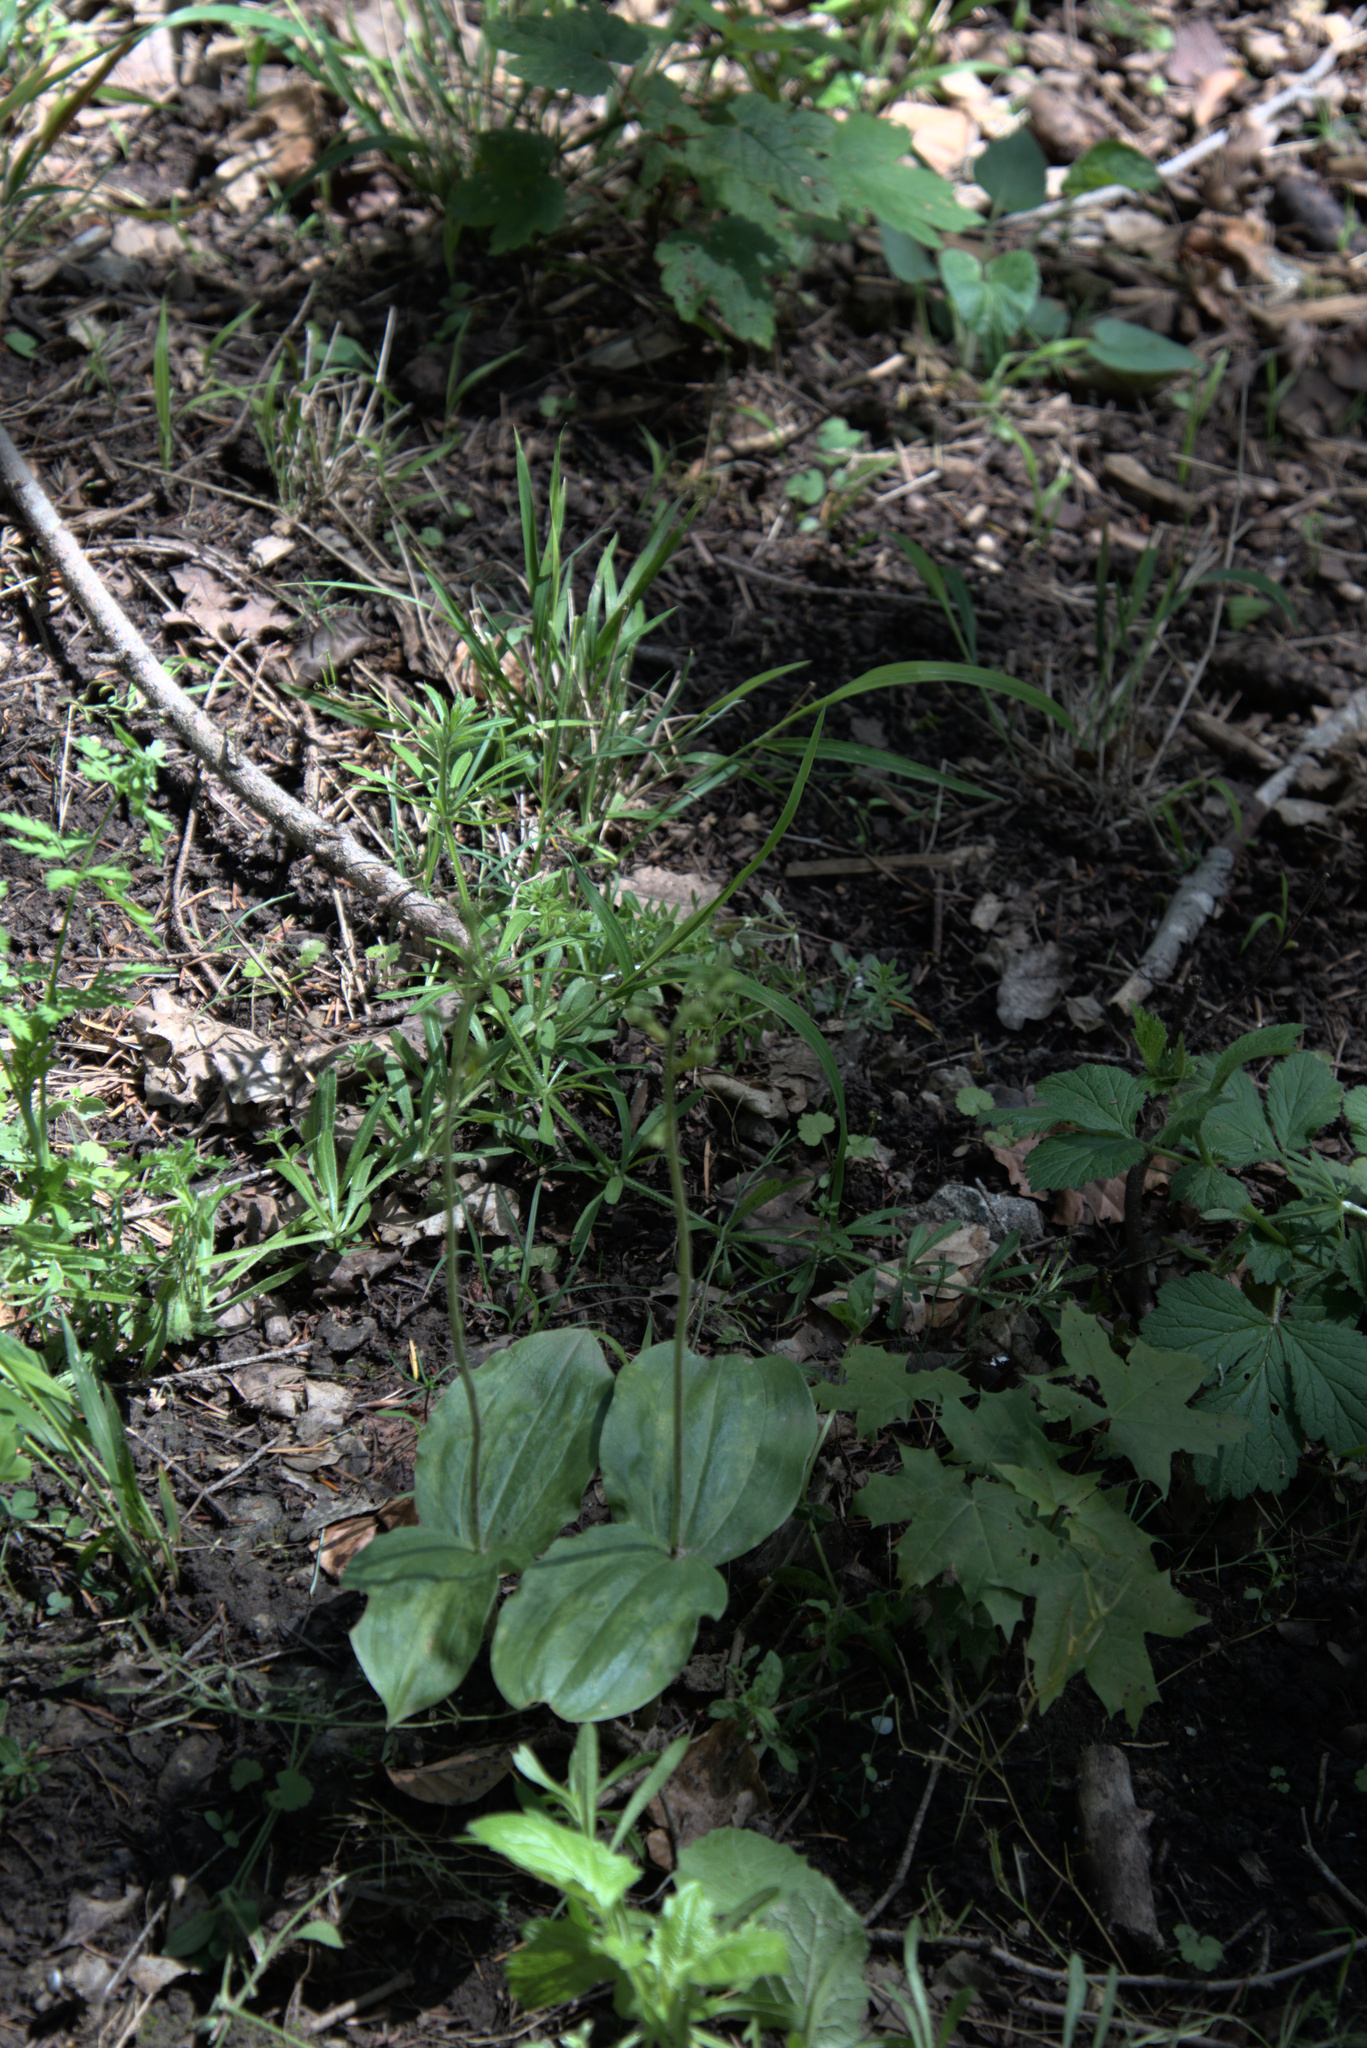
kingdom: Plantae
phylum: Tracheophyta
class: Liliopsida
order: Asparagales
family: Orchidaceae
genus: Neottia
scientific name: Neottia ovata
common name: Common twayblade
